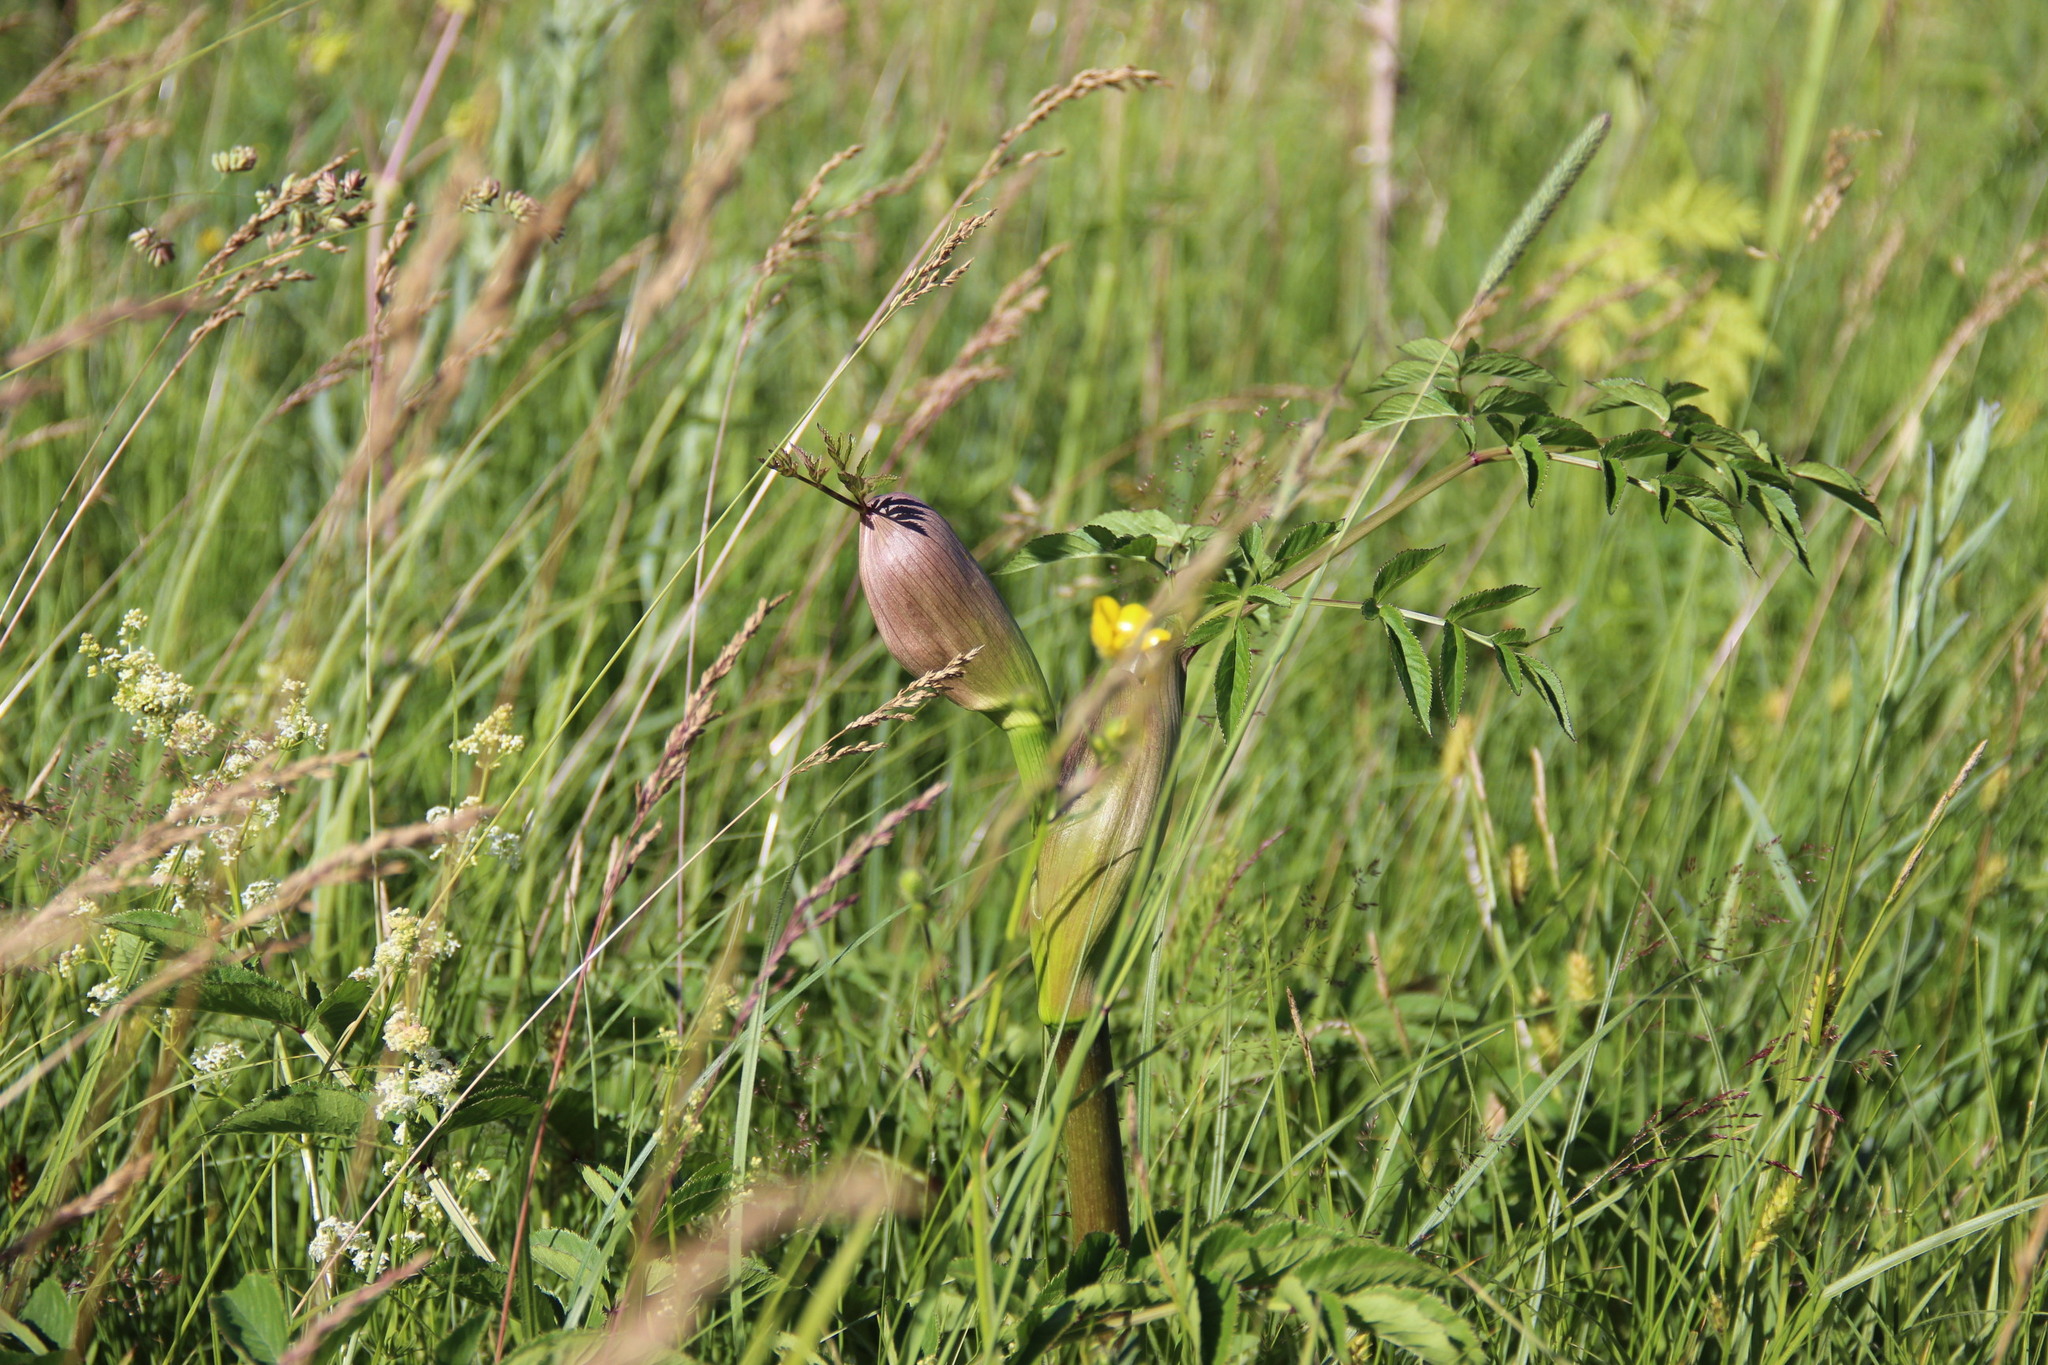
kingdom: Plantae
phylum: Tracheophyta
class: Magnoliopsida
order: Apiales
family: Apiaceae
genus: Angelica
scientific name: Angelica sylvestris
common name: Wild angelica
